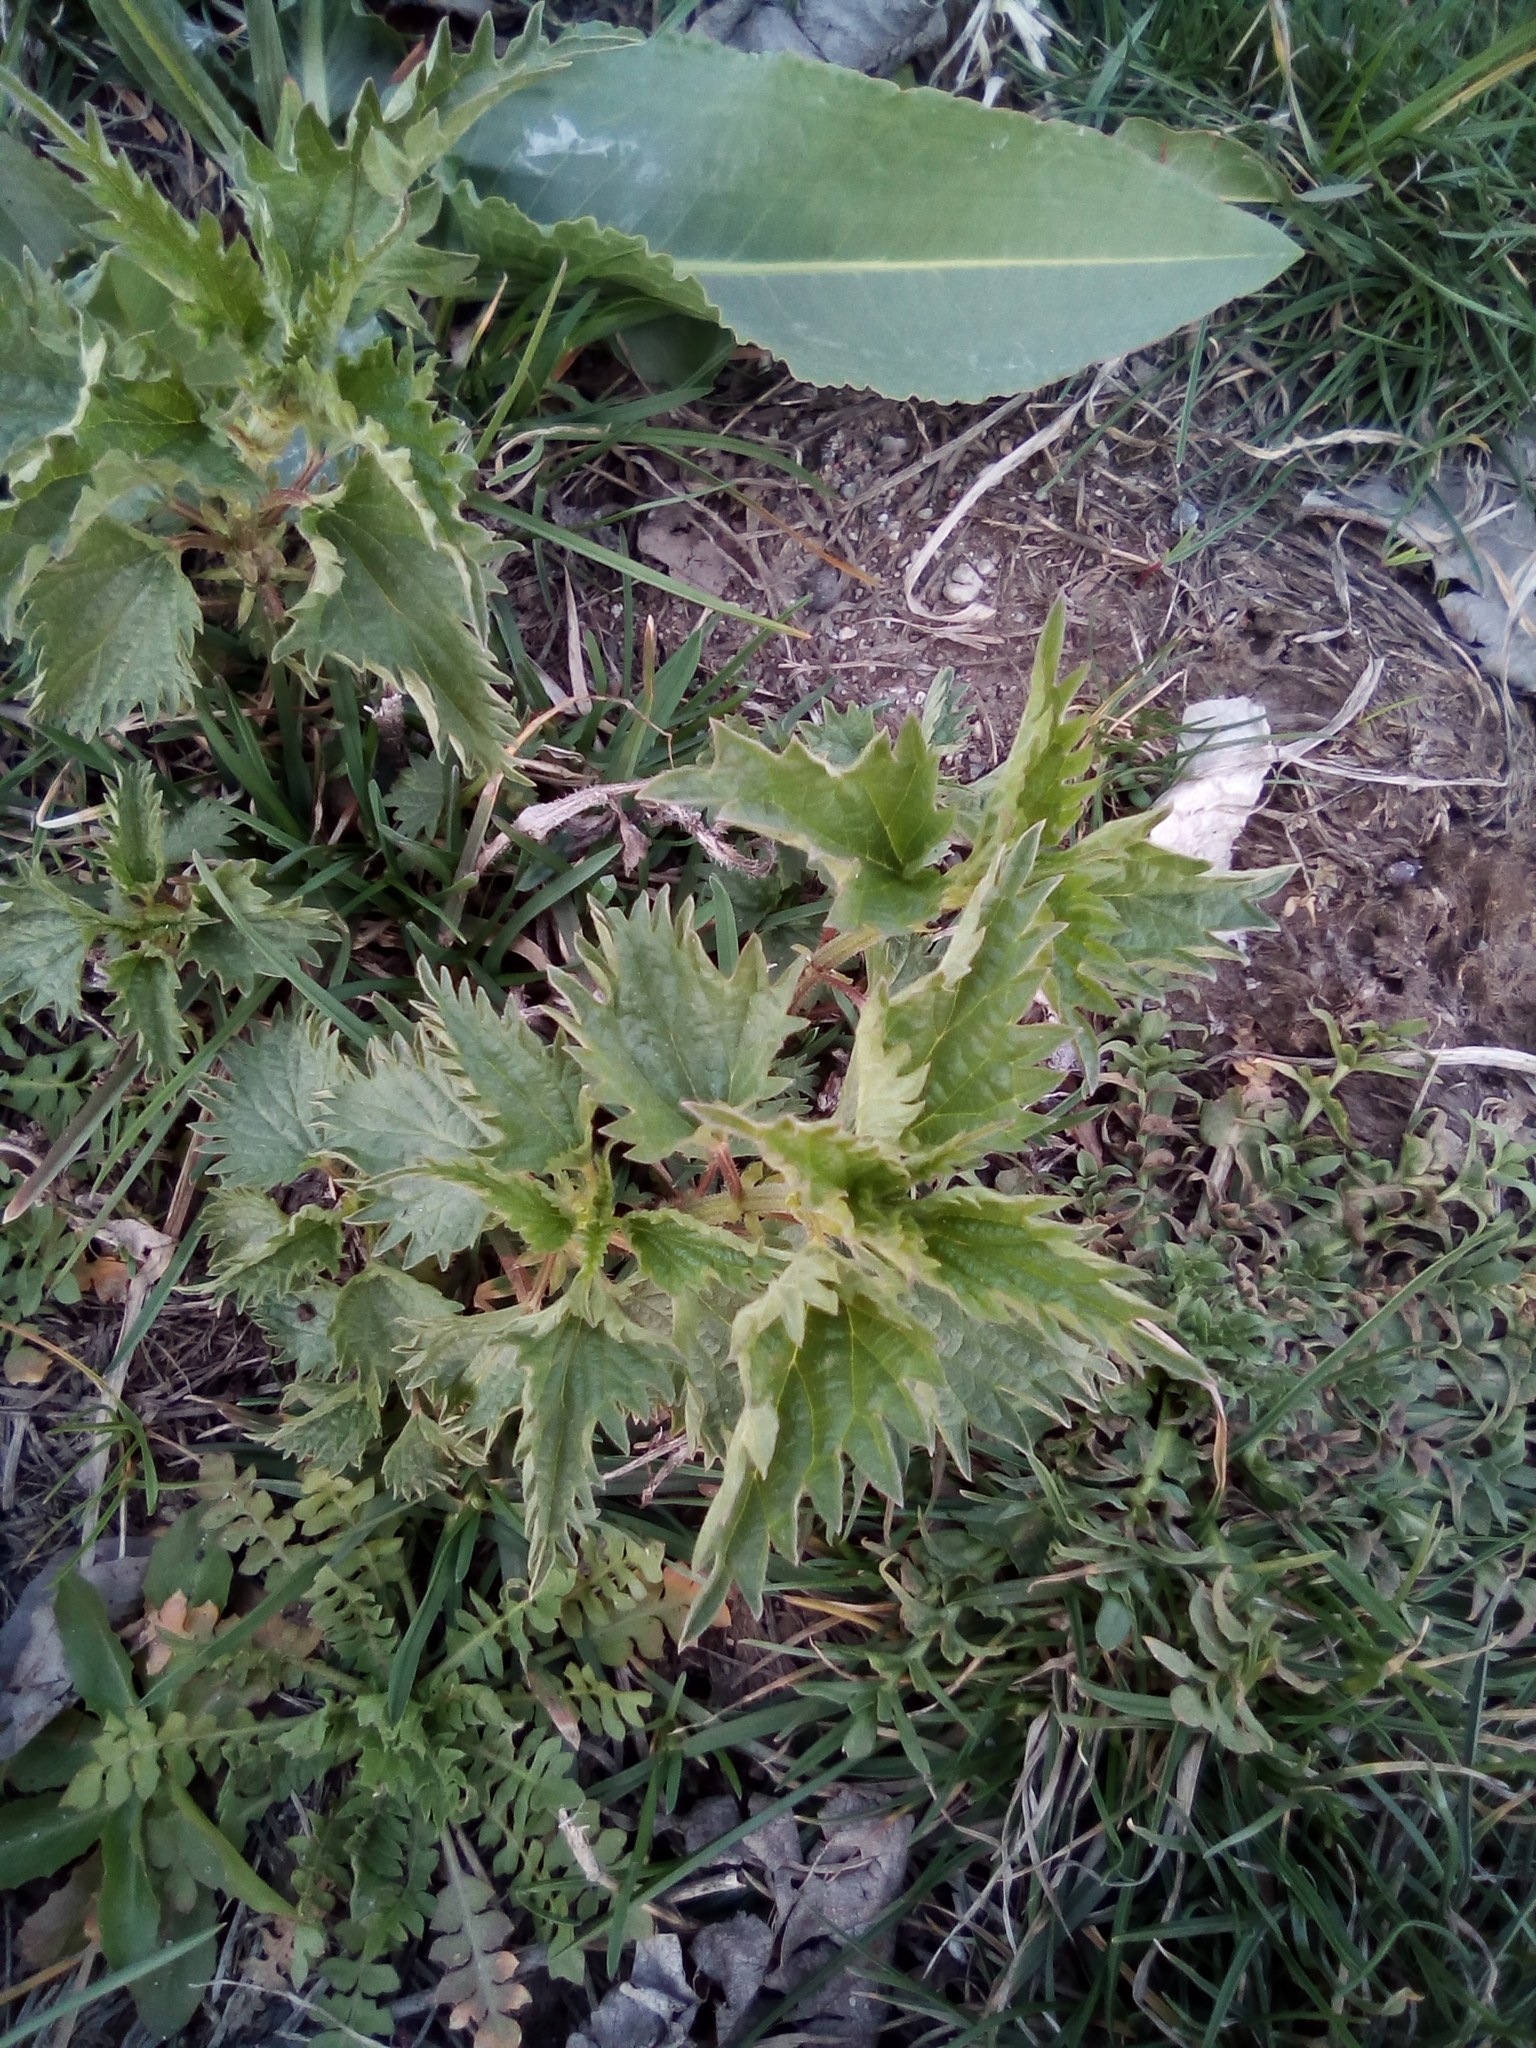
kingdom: Plantae
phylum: Tracheophyta
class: Magnoliopsida
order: Rosales
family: Urticaceae
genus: Urtica
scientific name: Urtica dioica
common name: Common nettle
